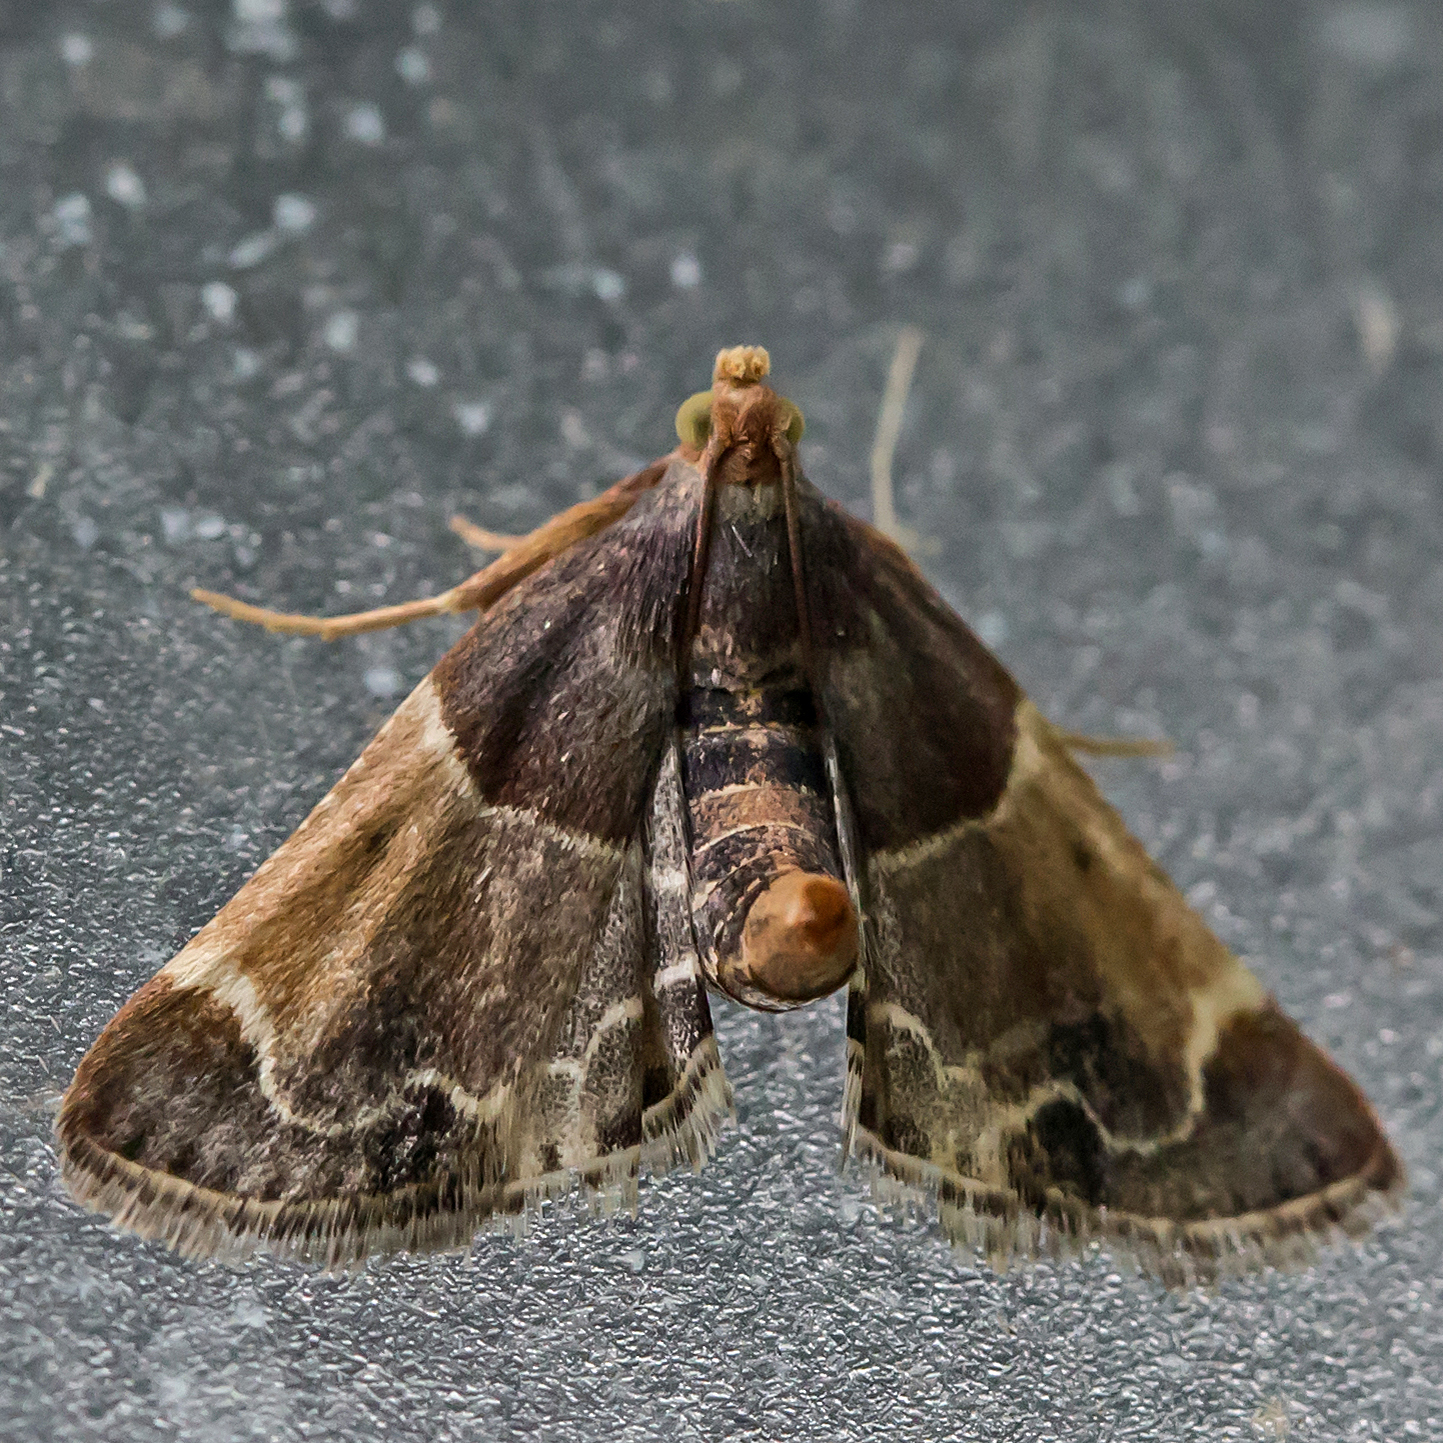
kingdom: Animalia
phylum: Arthropoda
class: Insecta
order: Lepidoptera
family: Pyralidae
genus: Pyralis
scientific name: Pyralis farinalis
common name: Meal moth
